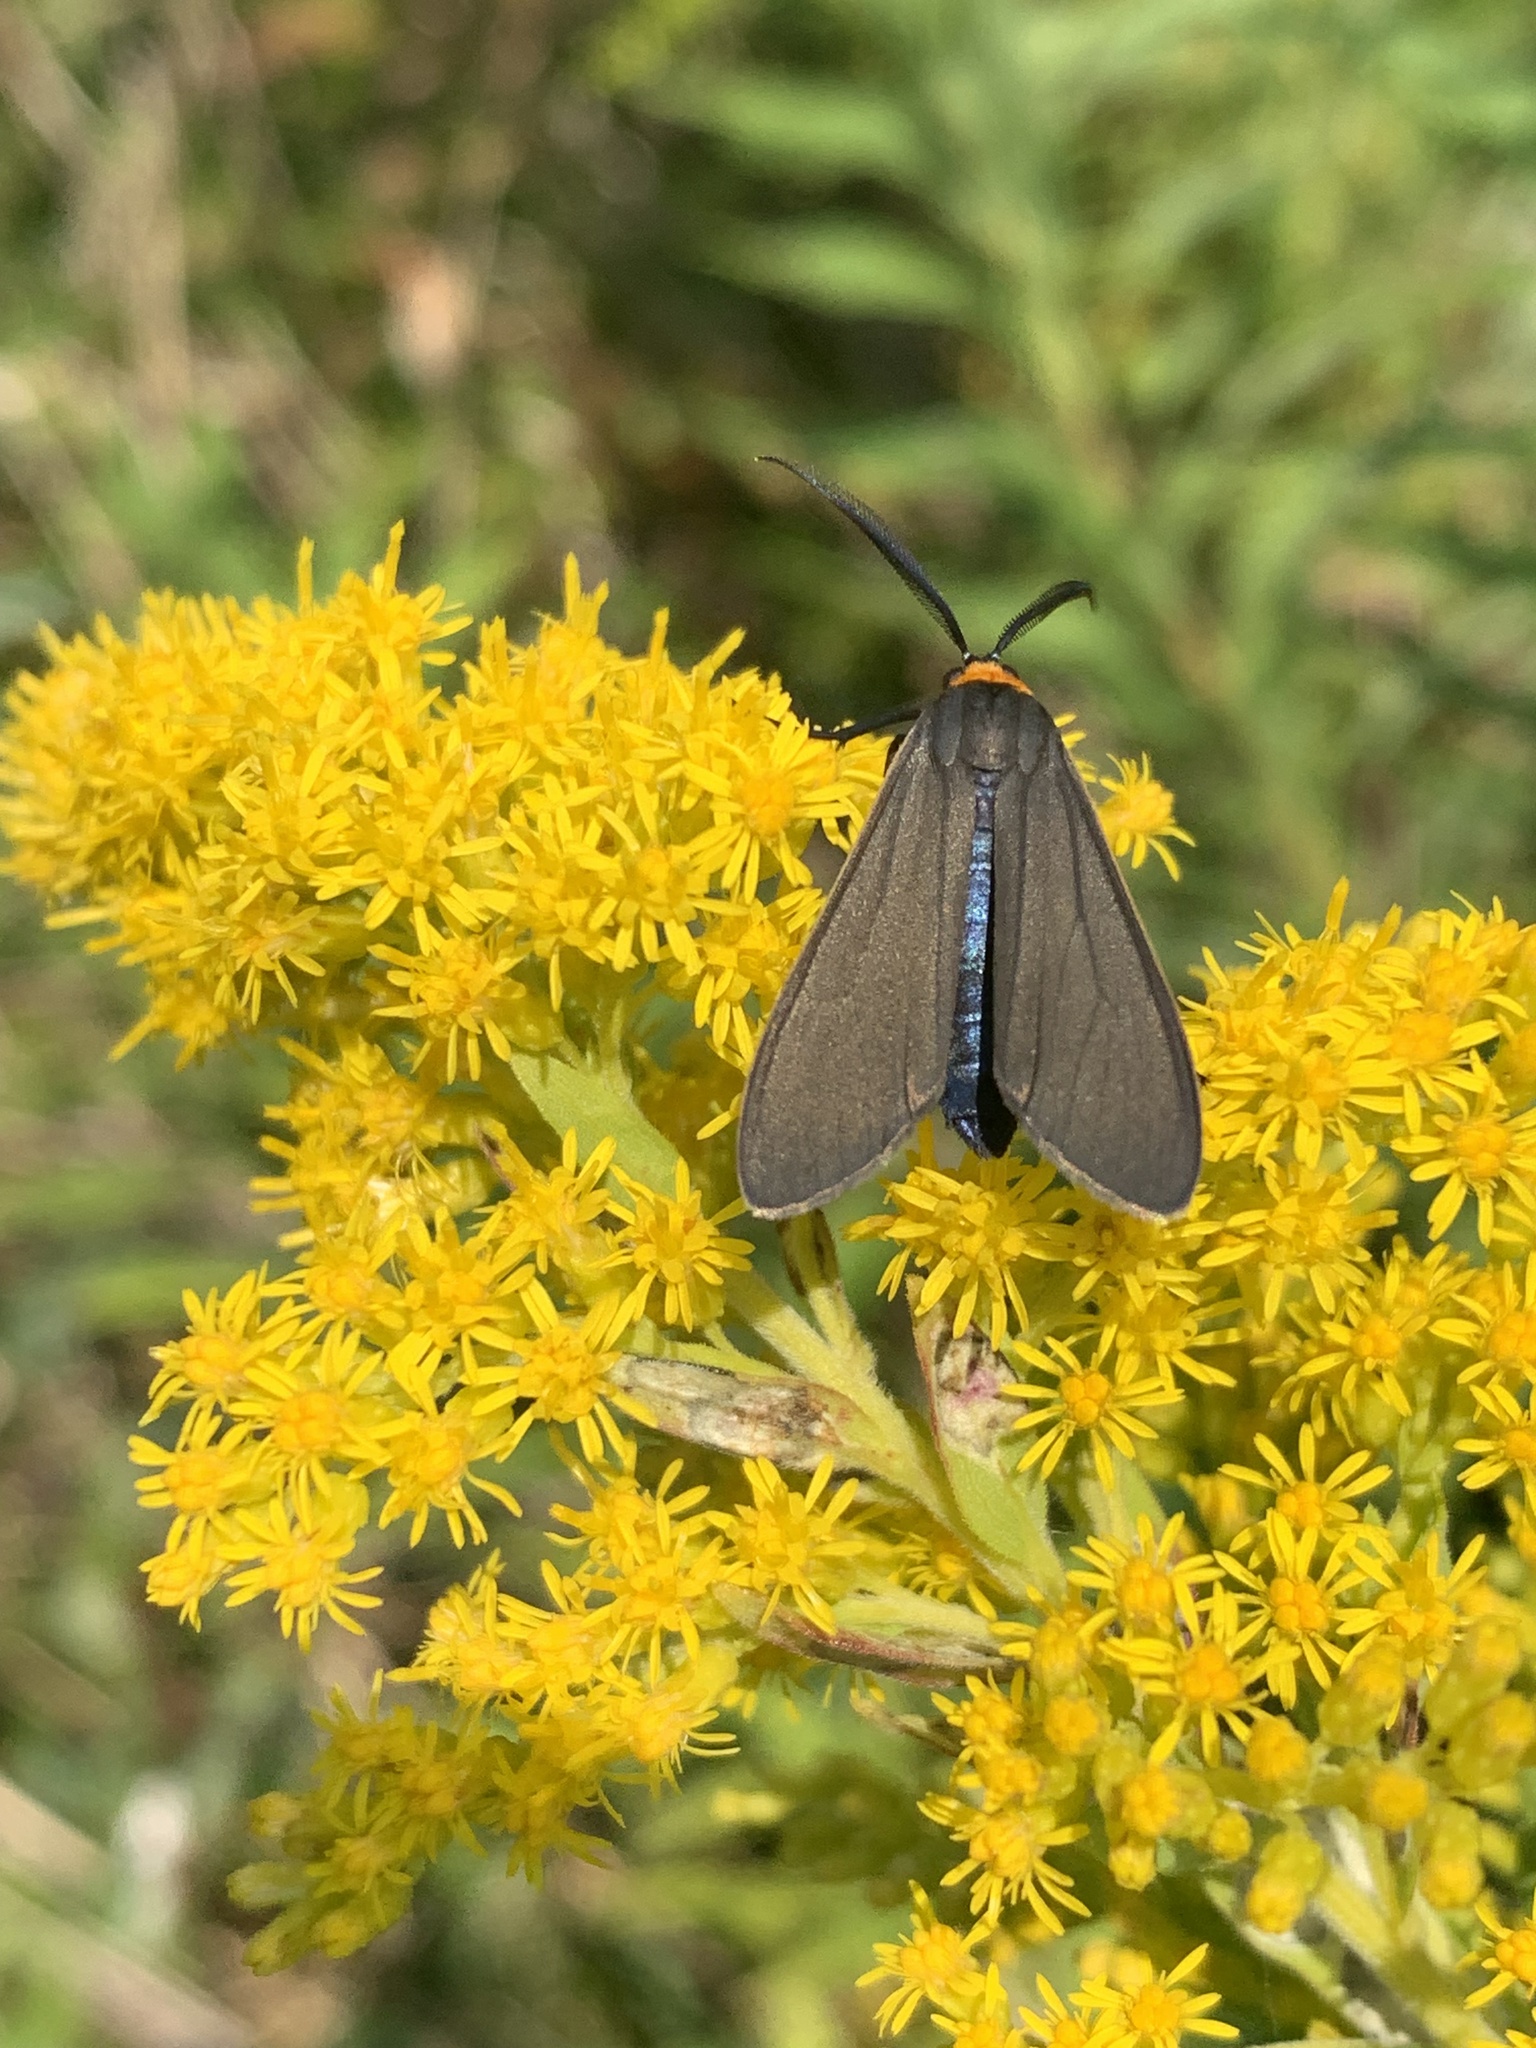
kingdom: Animalia
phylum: Arthropoda
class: Insecta
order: Lepidoptera
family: Erebidae
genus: Cisseps
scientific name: Cisseps fulvicollis
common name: Yellow-collared scape moth
